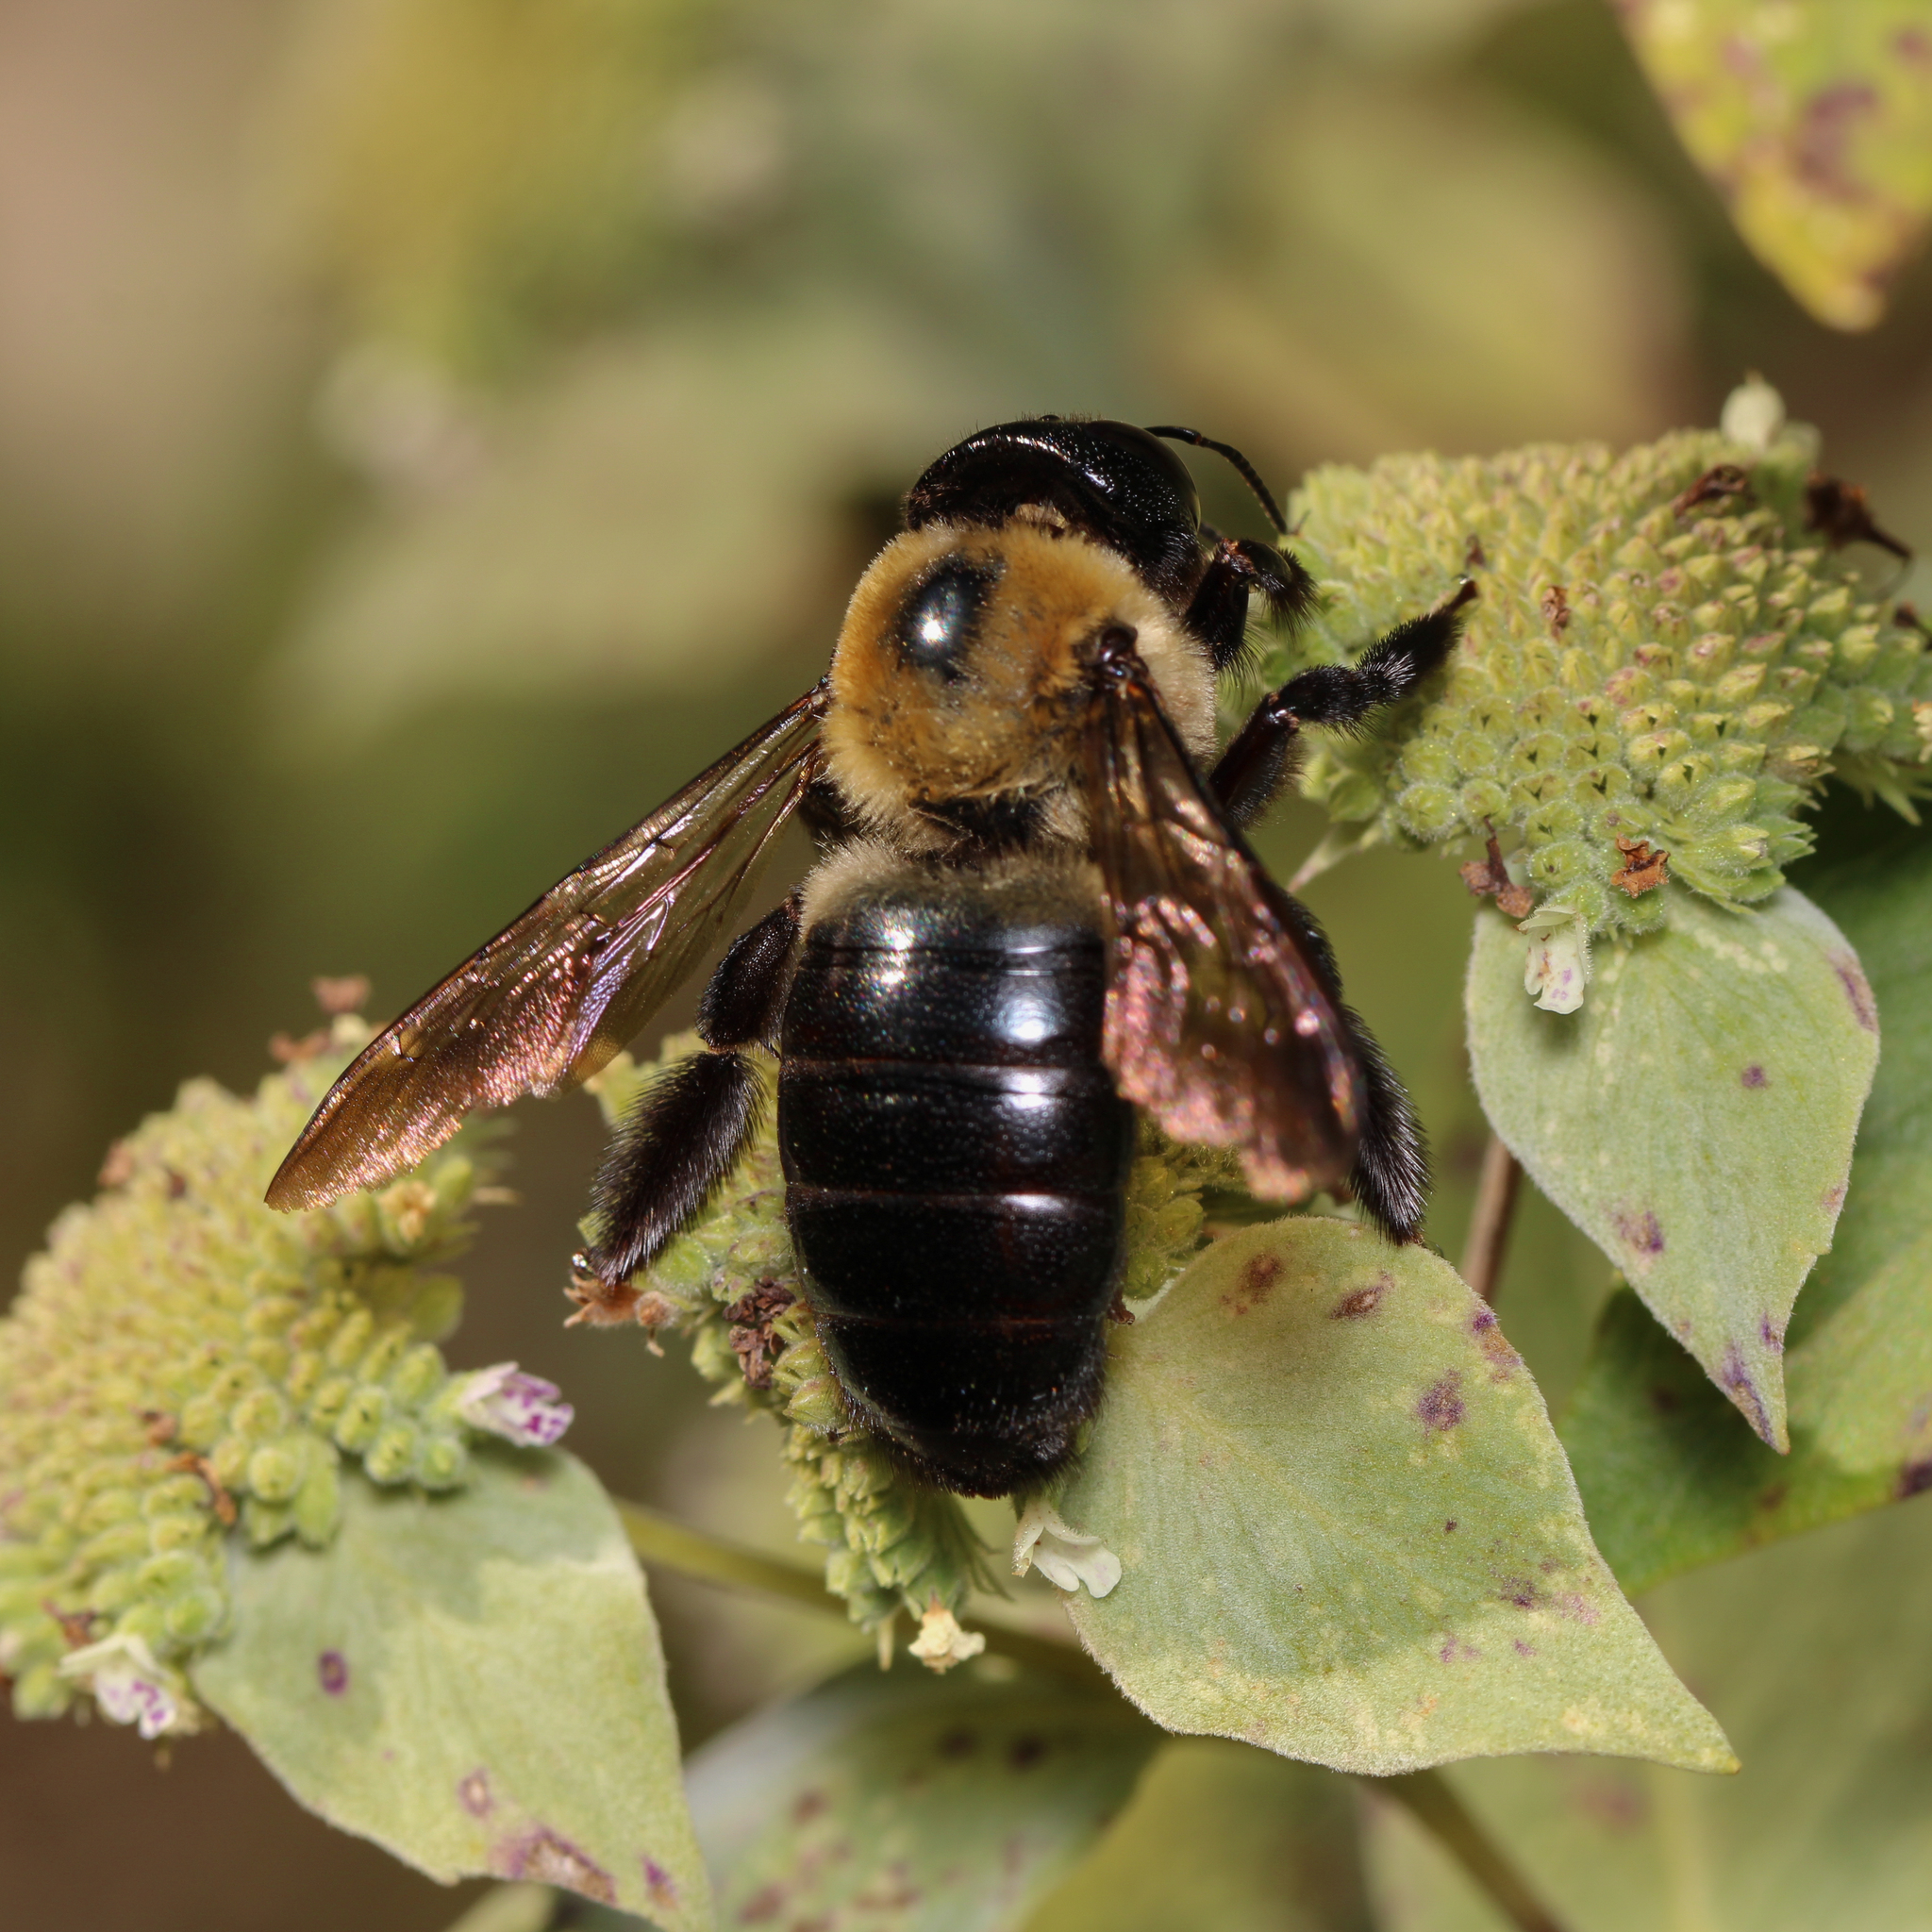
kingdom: Animalia
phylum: Arthropoda
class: Insecta
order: Hymenoptera
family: Apidae
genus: Xylocopa
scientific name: Xylocopa virginica
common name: Carpenter bee
